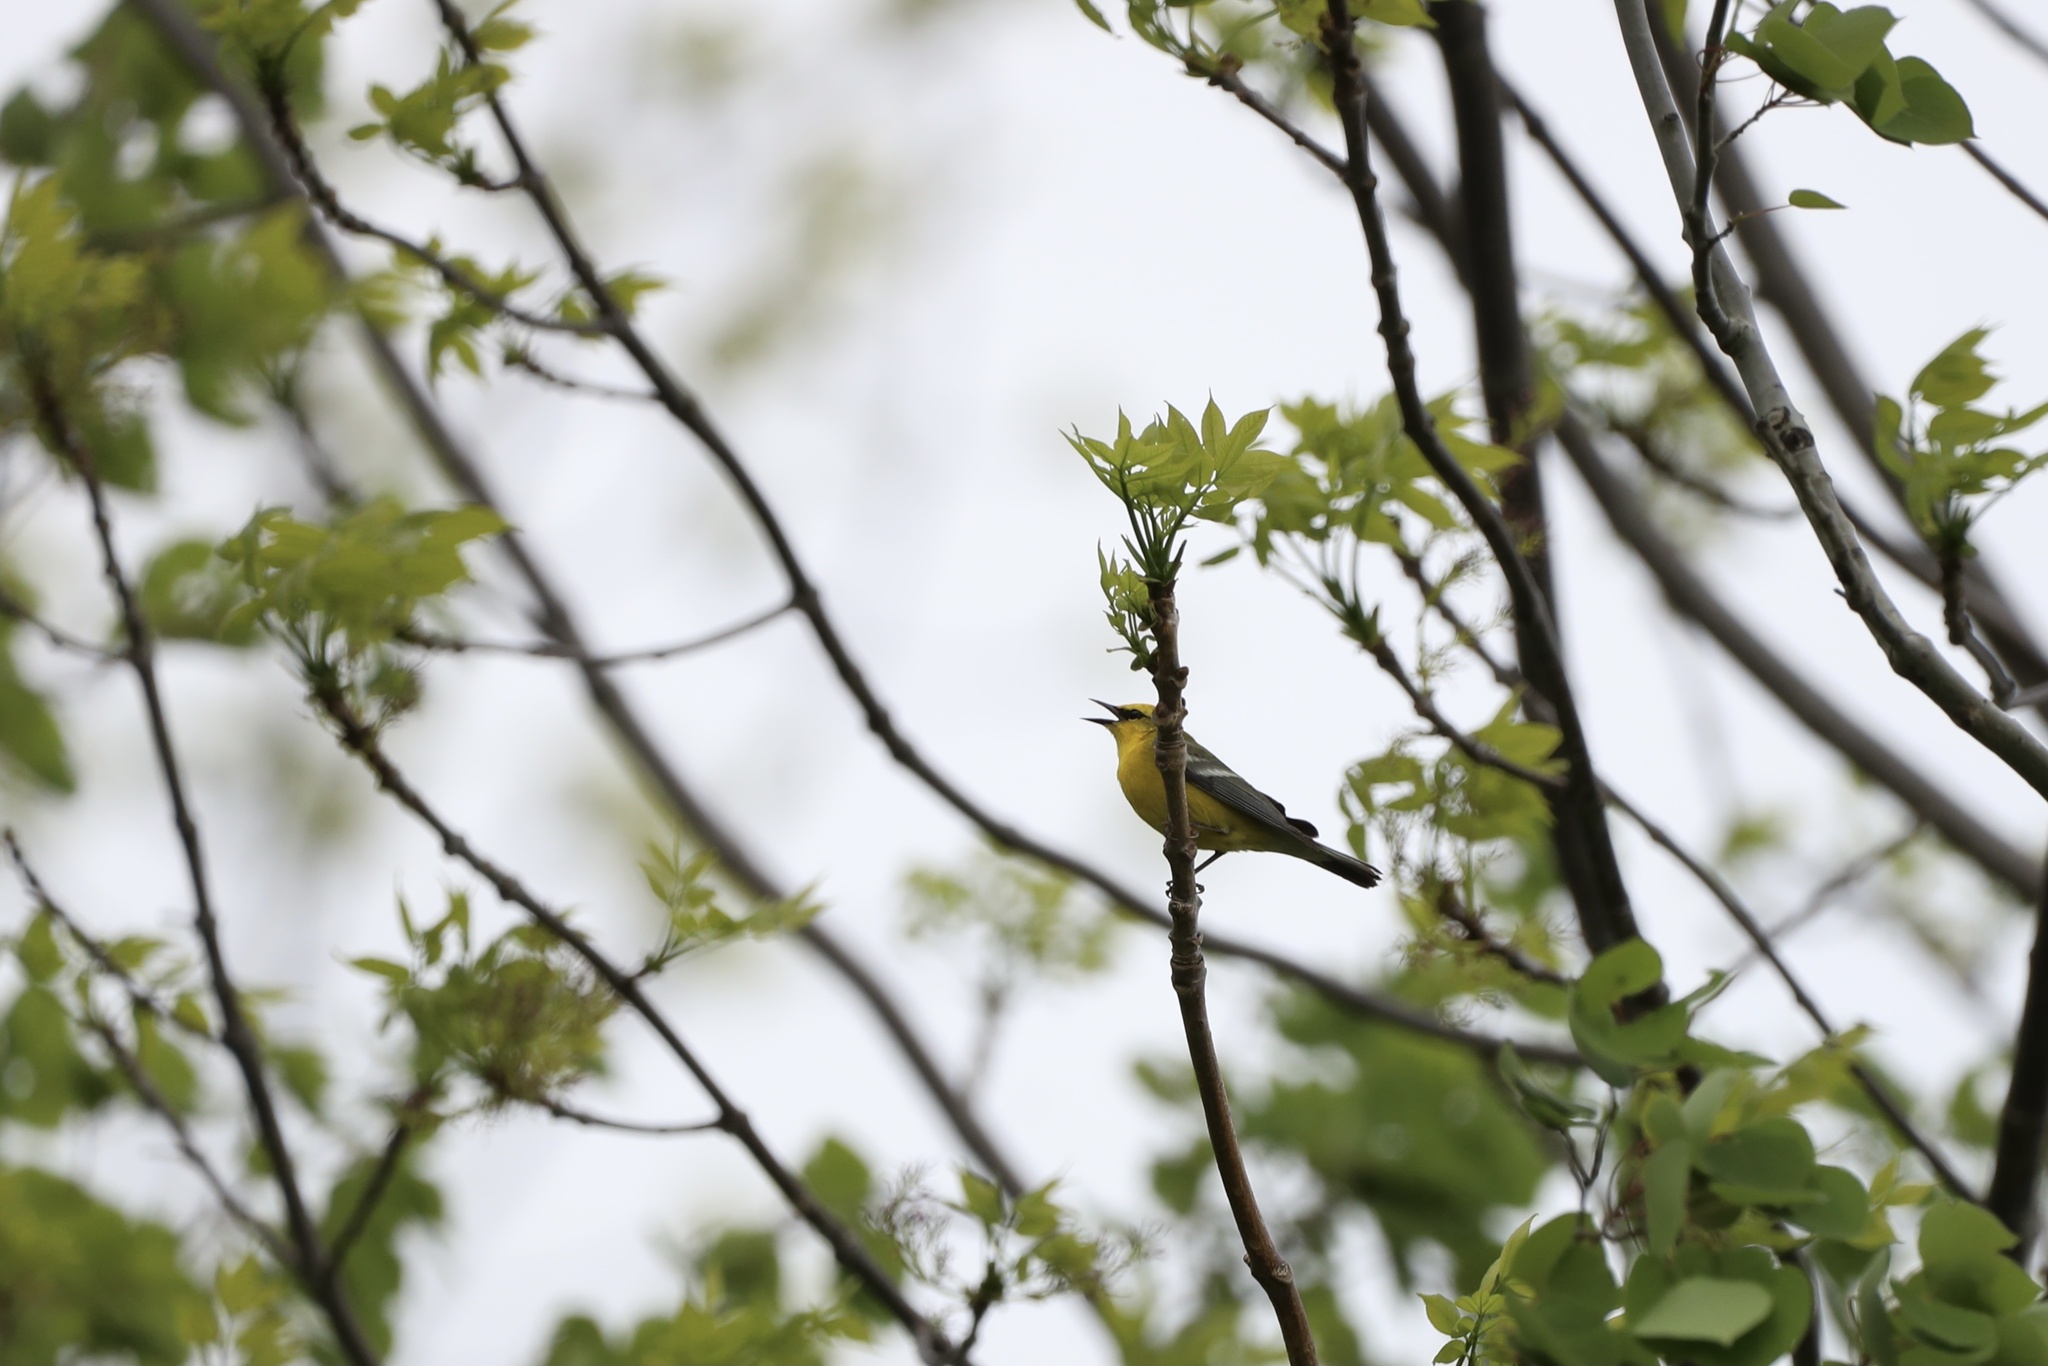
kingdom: Animalia
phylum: Chordata
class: Aves
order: Passeriformes
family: Parulidae
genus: Vermivora
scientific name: Vermivora cyanoptera
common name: Blue-winged warbler
